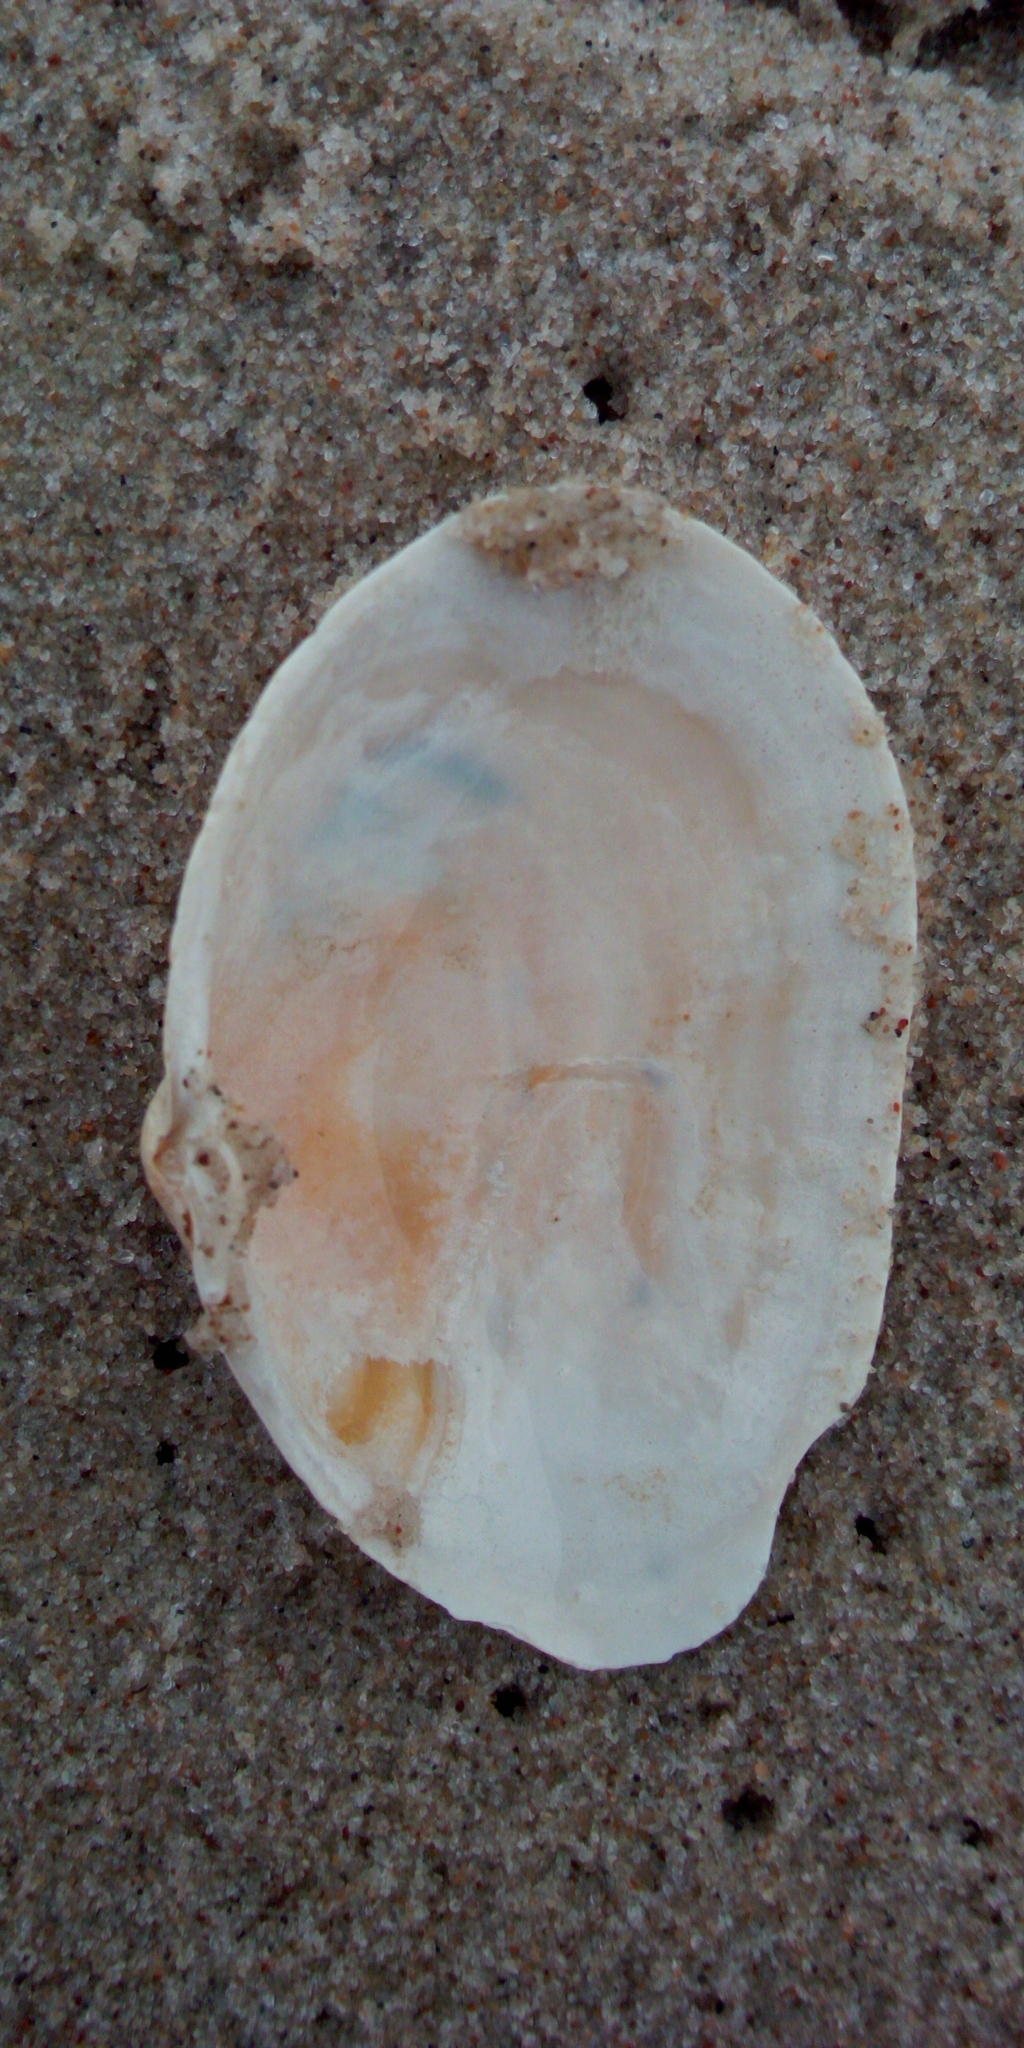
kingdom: Animalia
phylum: Mollusca
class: Bivalvia
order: Myida
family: Myidae
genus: Mya
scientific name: Mya arenaria
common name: Soft-shelled clam
